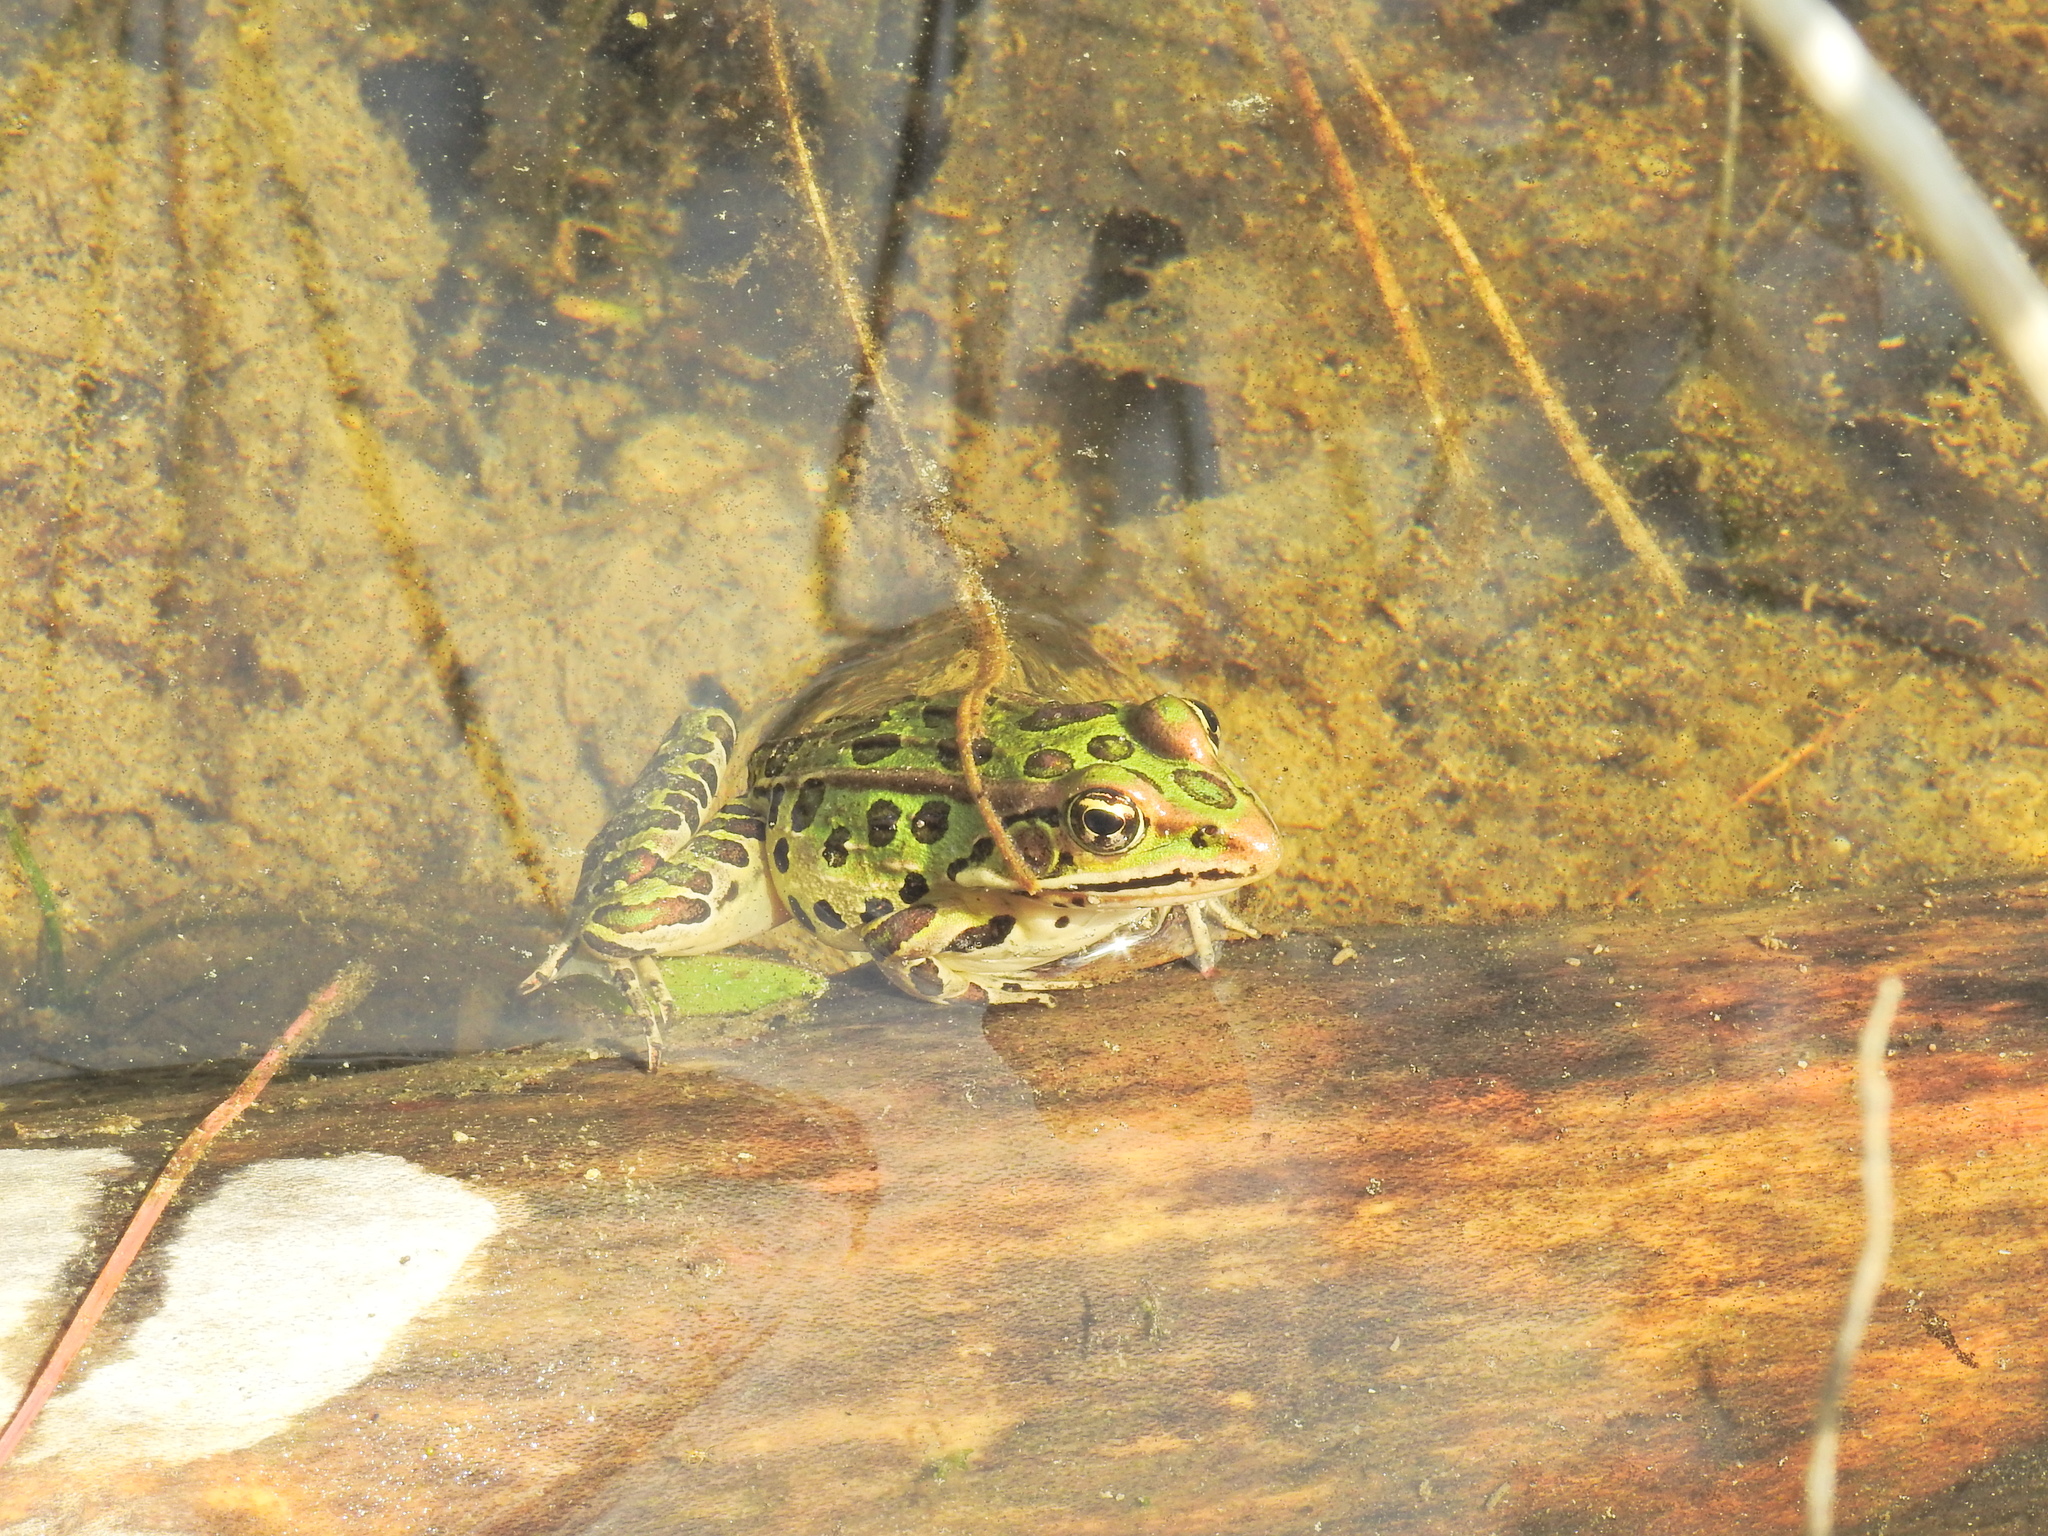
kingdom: Animalia
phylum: Chordata
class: Amphibia
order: Anura
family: Ranidae
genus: Lithobates
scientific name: Lithobates pipiens
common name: Northern leopard frog
